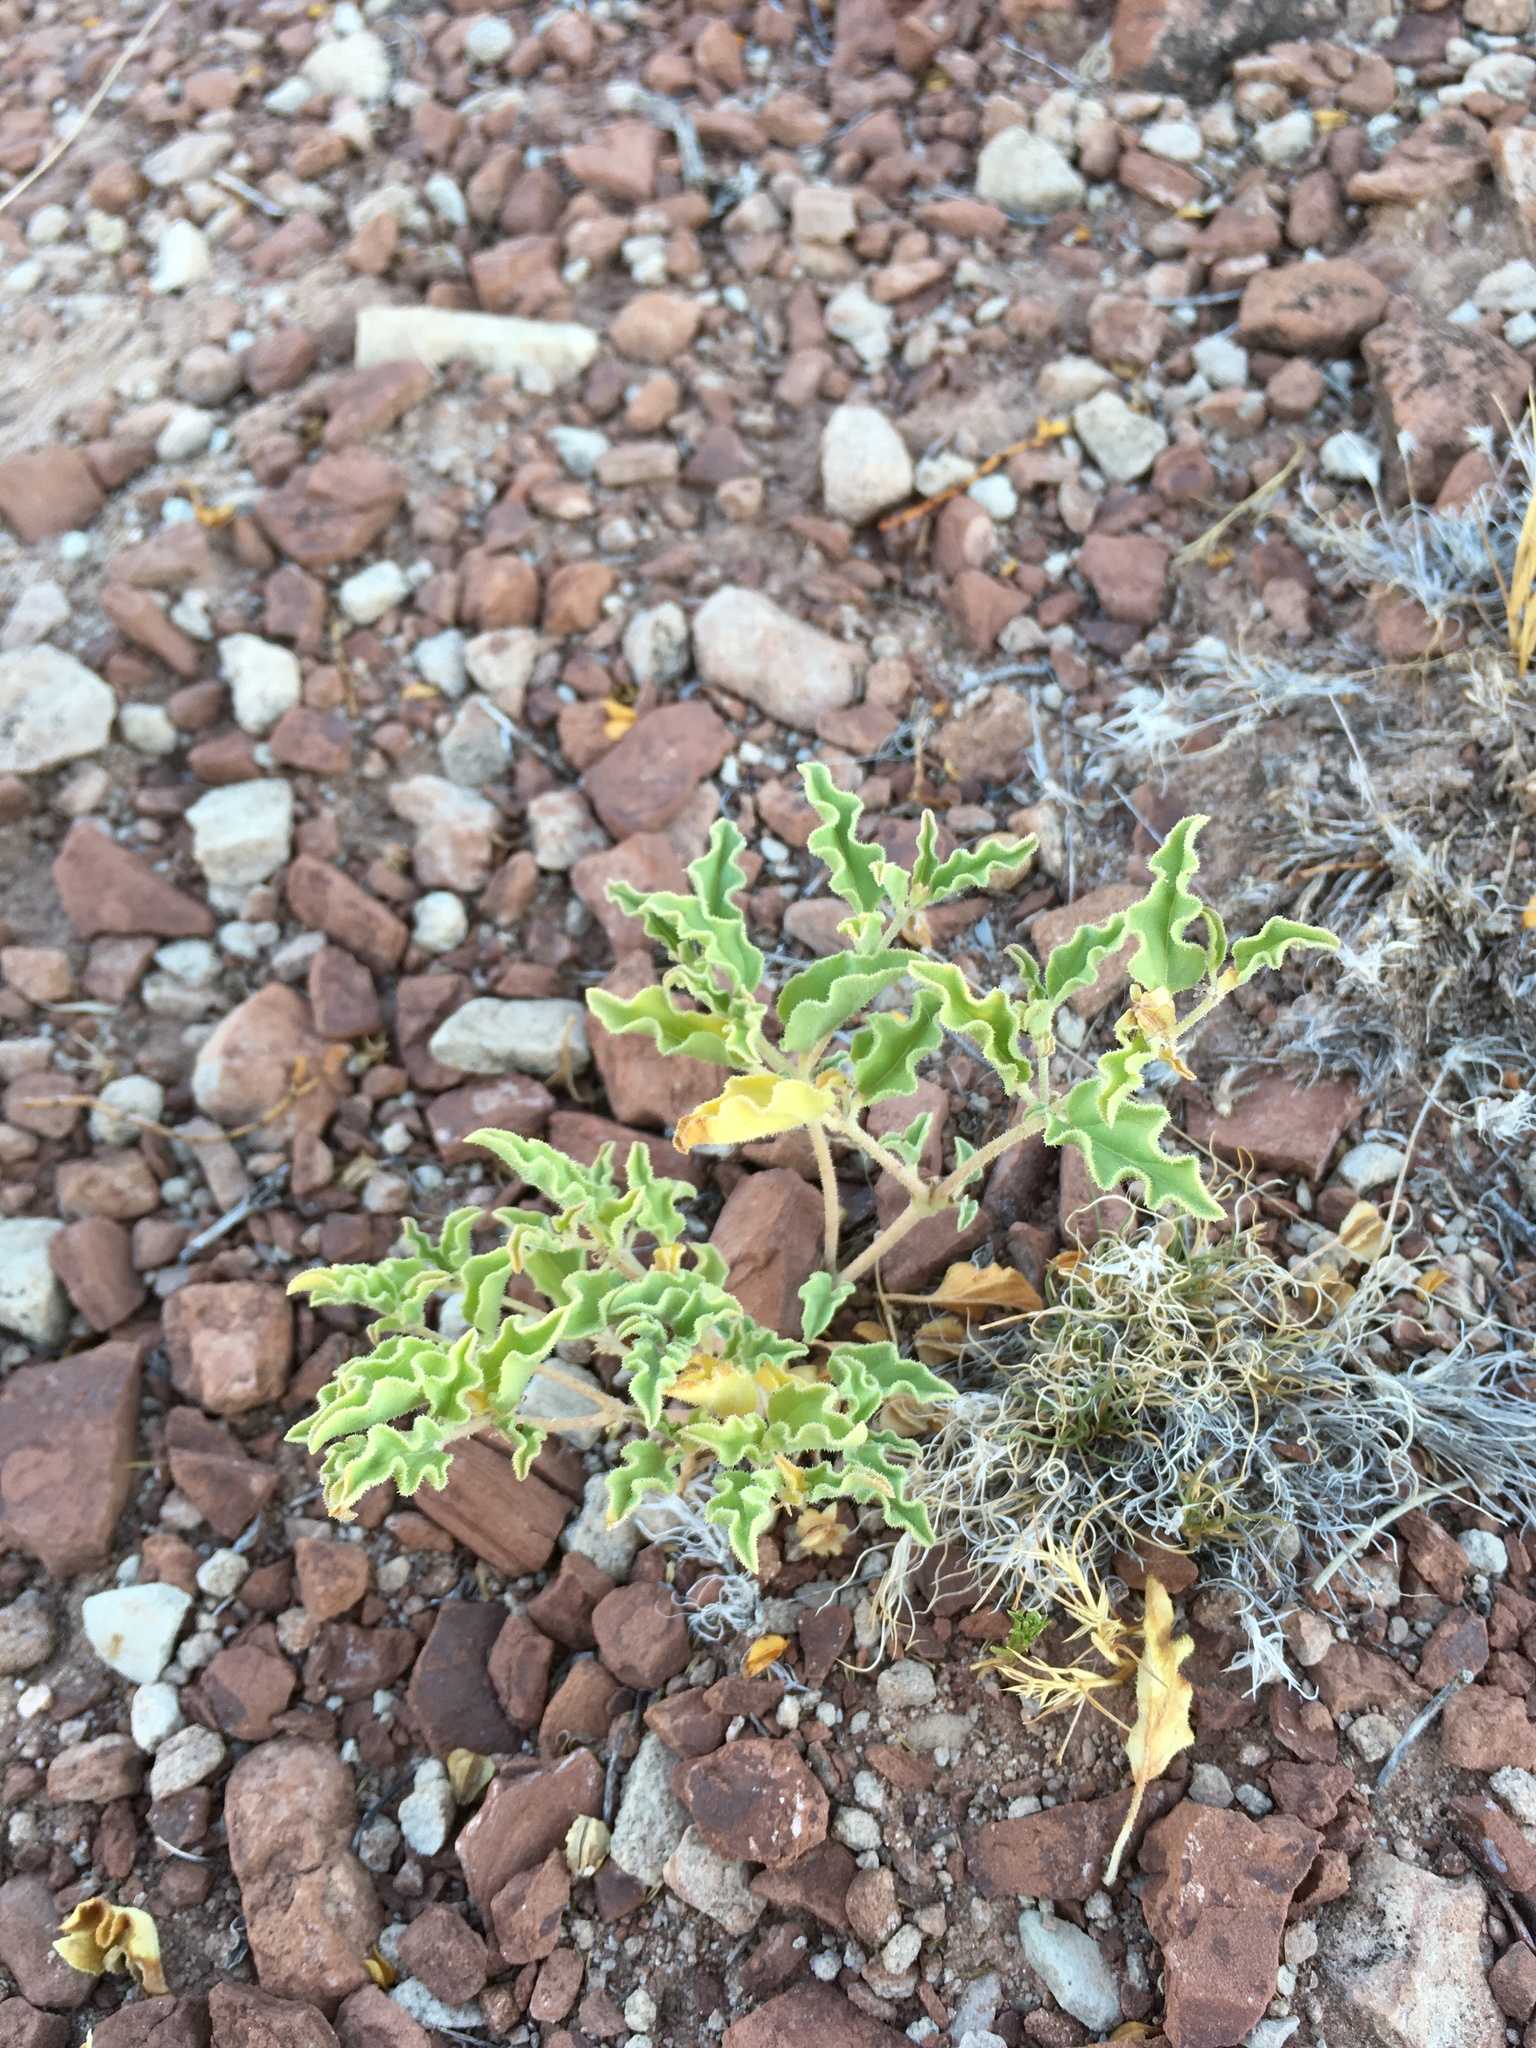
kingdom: Plantae
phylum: Tracheophyta
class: Magnoliopsida
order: Caryophyllales
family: Nyctaginaceae
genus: Acleisanthes
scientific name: Acleisanthes diffusa
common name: Spreading moonpod
